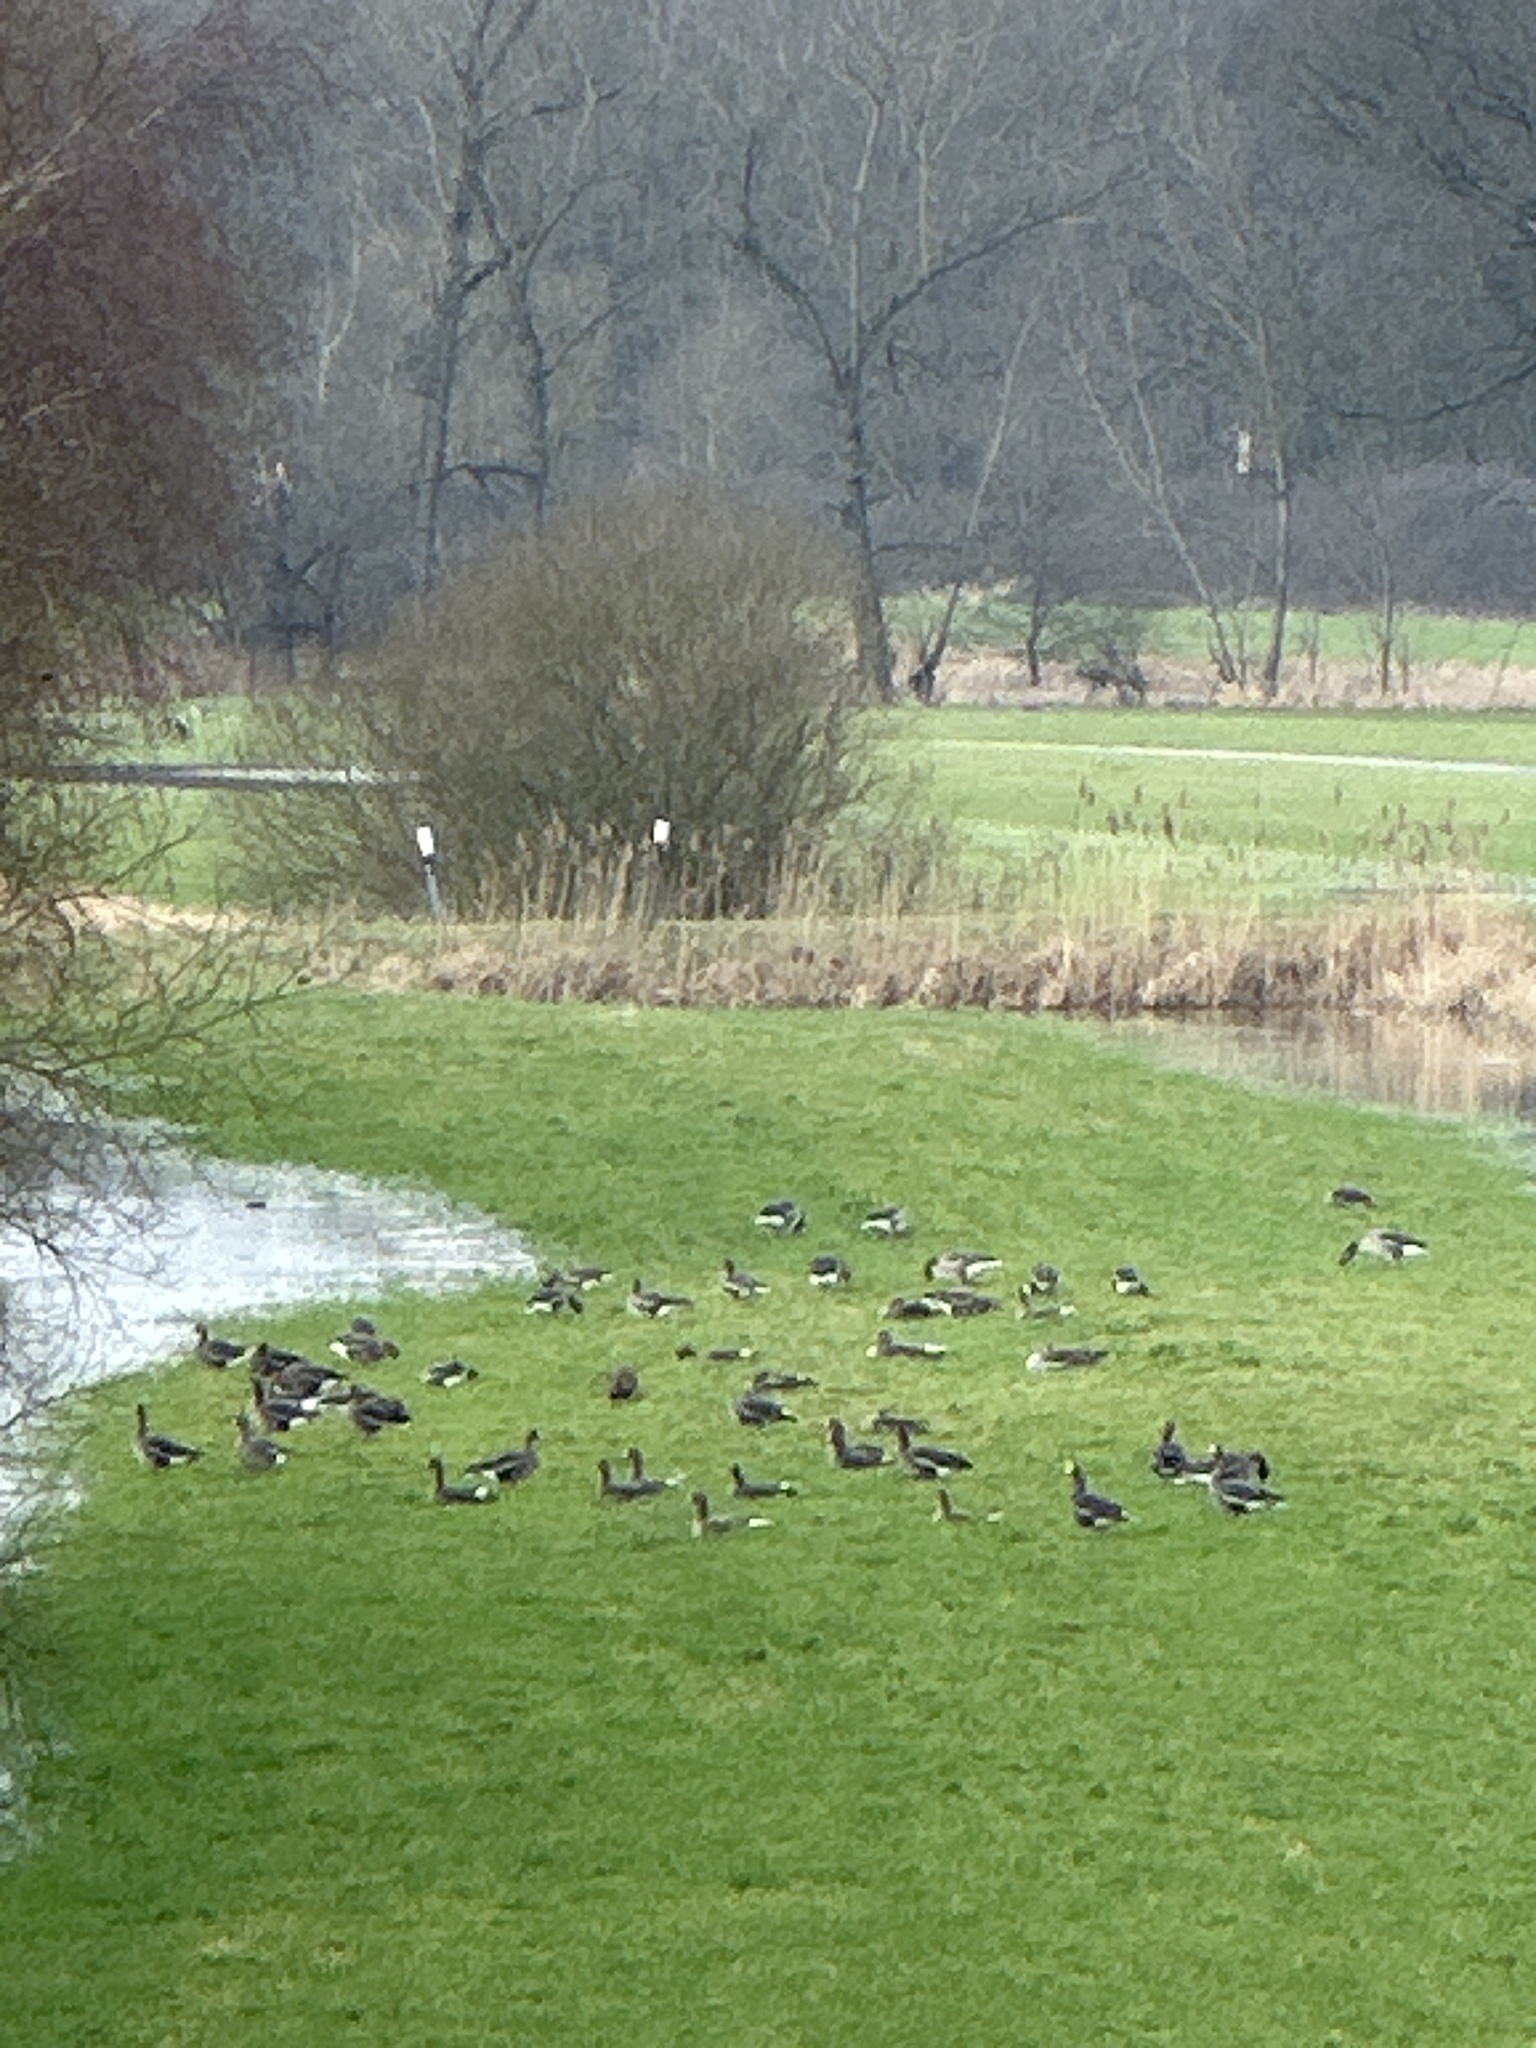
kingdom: Animalia
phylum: Chordata
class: Aves
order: Anseriformes
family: Anatidae
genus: Anser
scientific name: Anser albifrons
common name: Greater white-fronted goose
